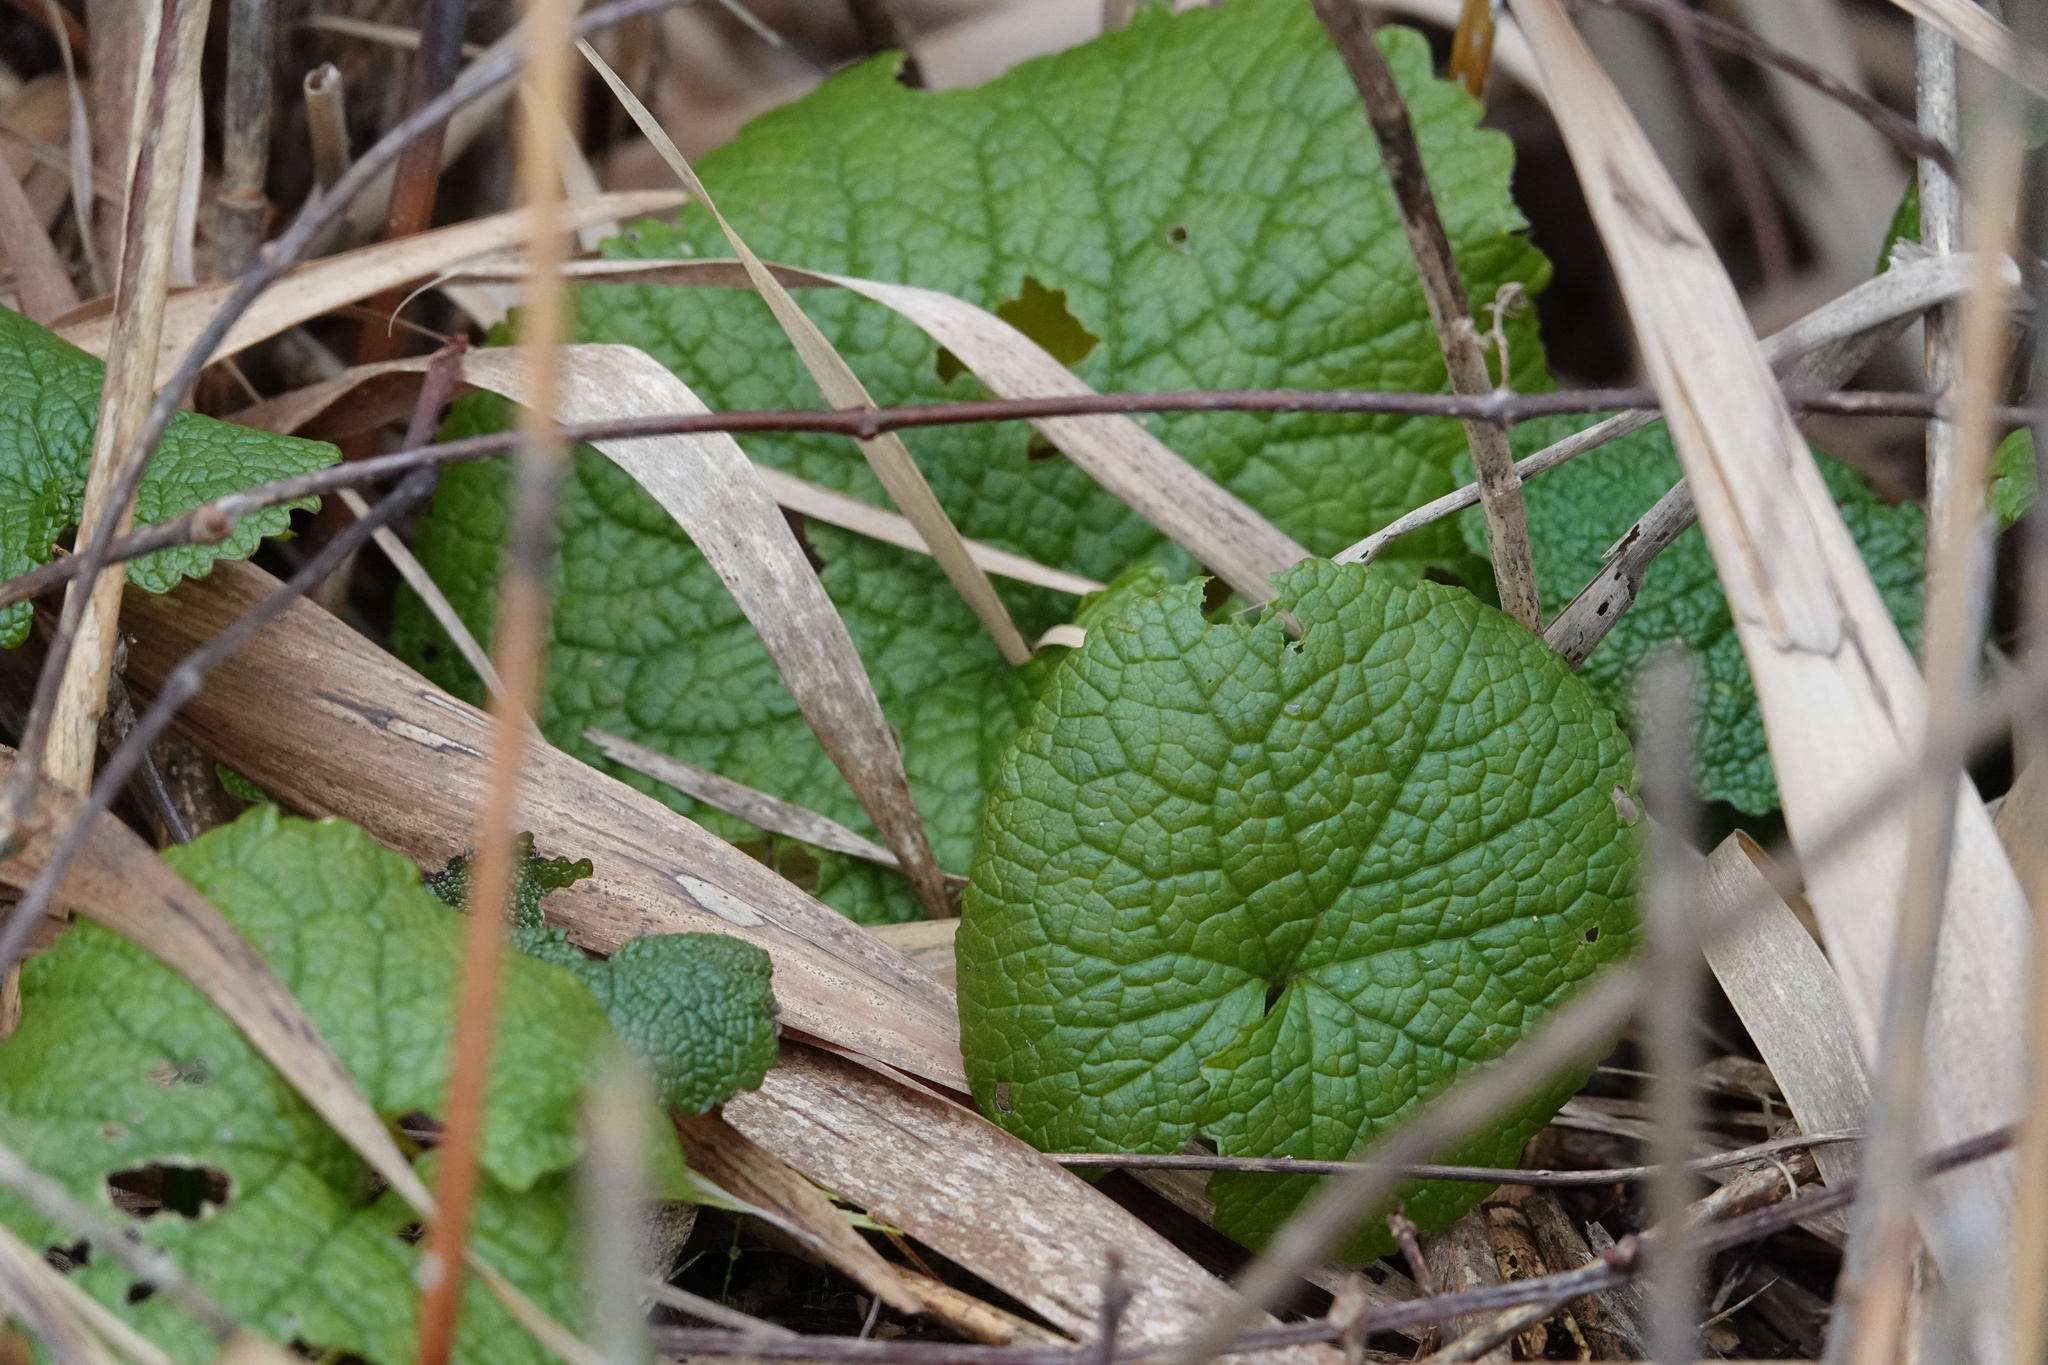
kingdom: Plantae
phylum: Tracheophyta
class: Magnoliopsida
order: Brassicales
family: Brassicaceae
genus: Alliaria
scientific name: Alliaria petiolata
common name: Garlic mustard
